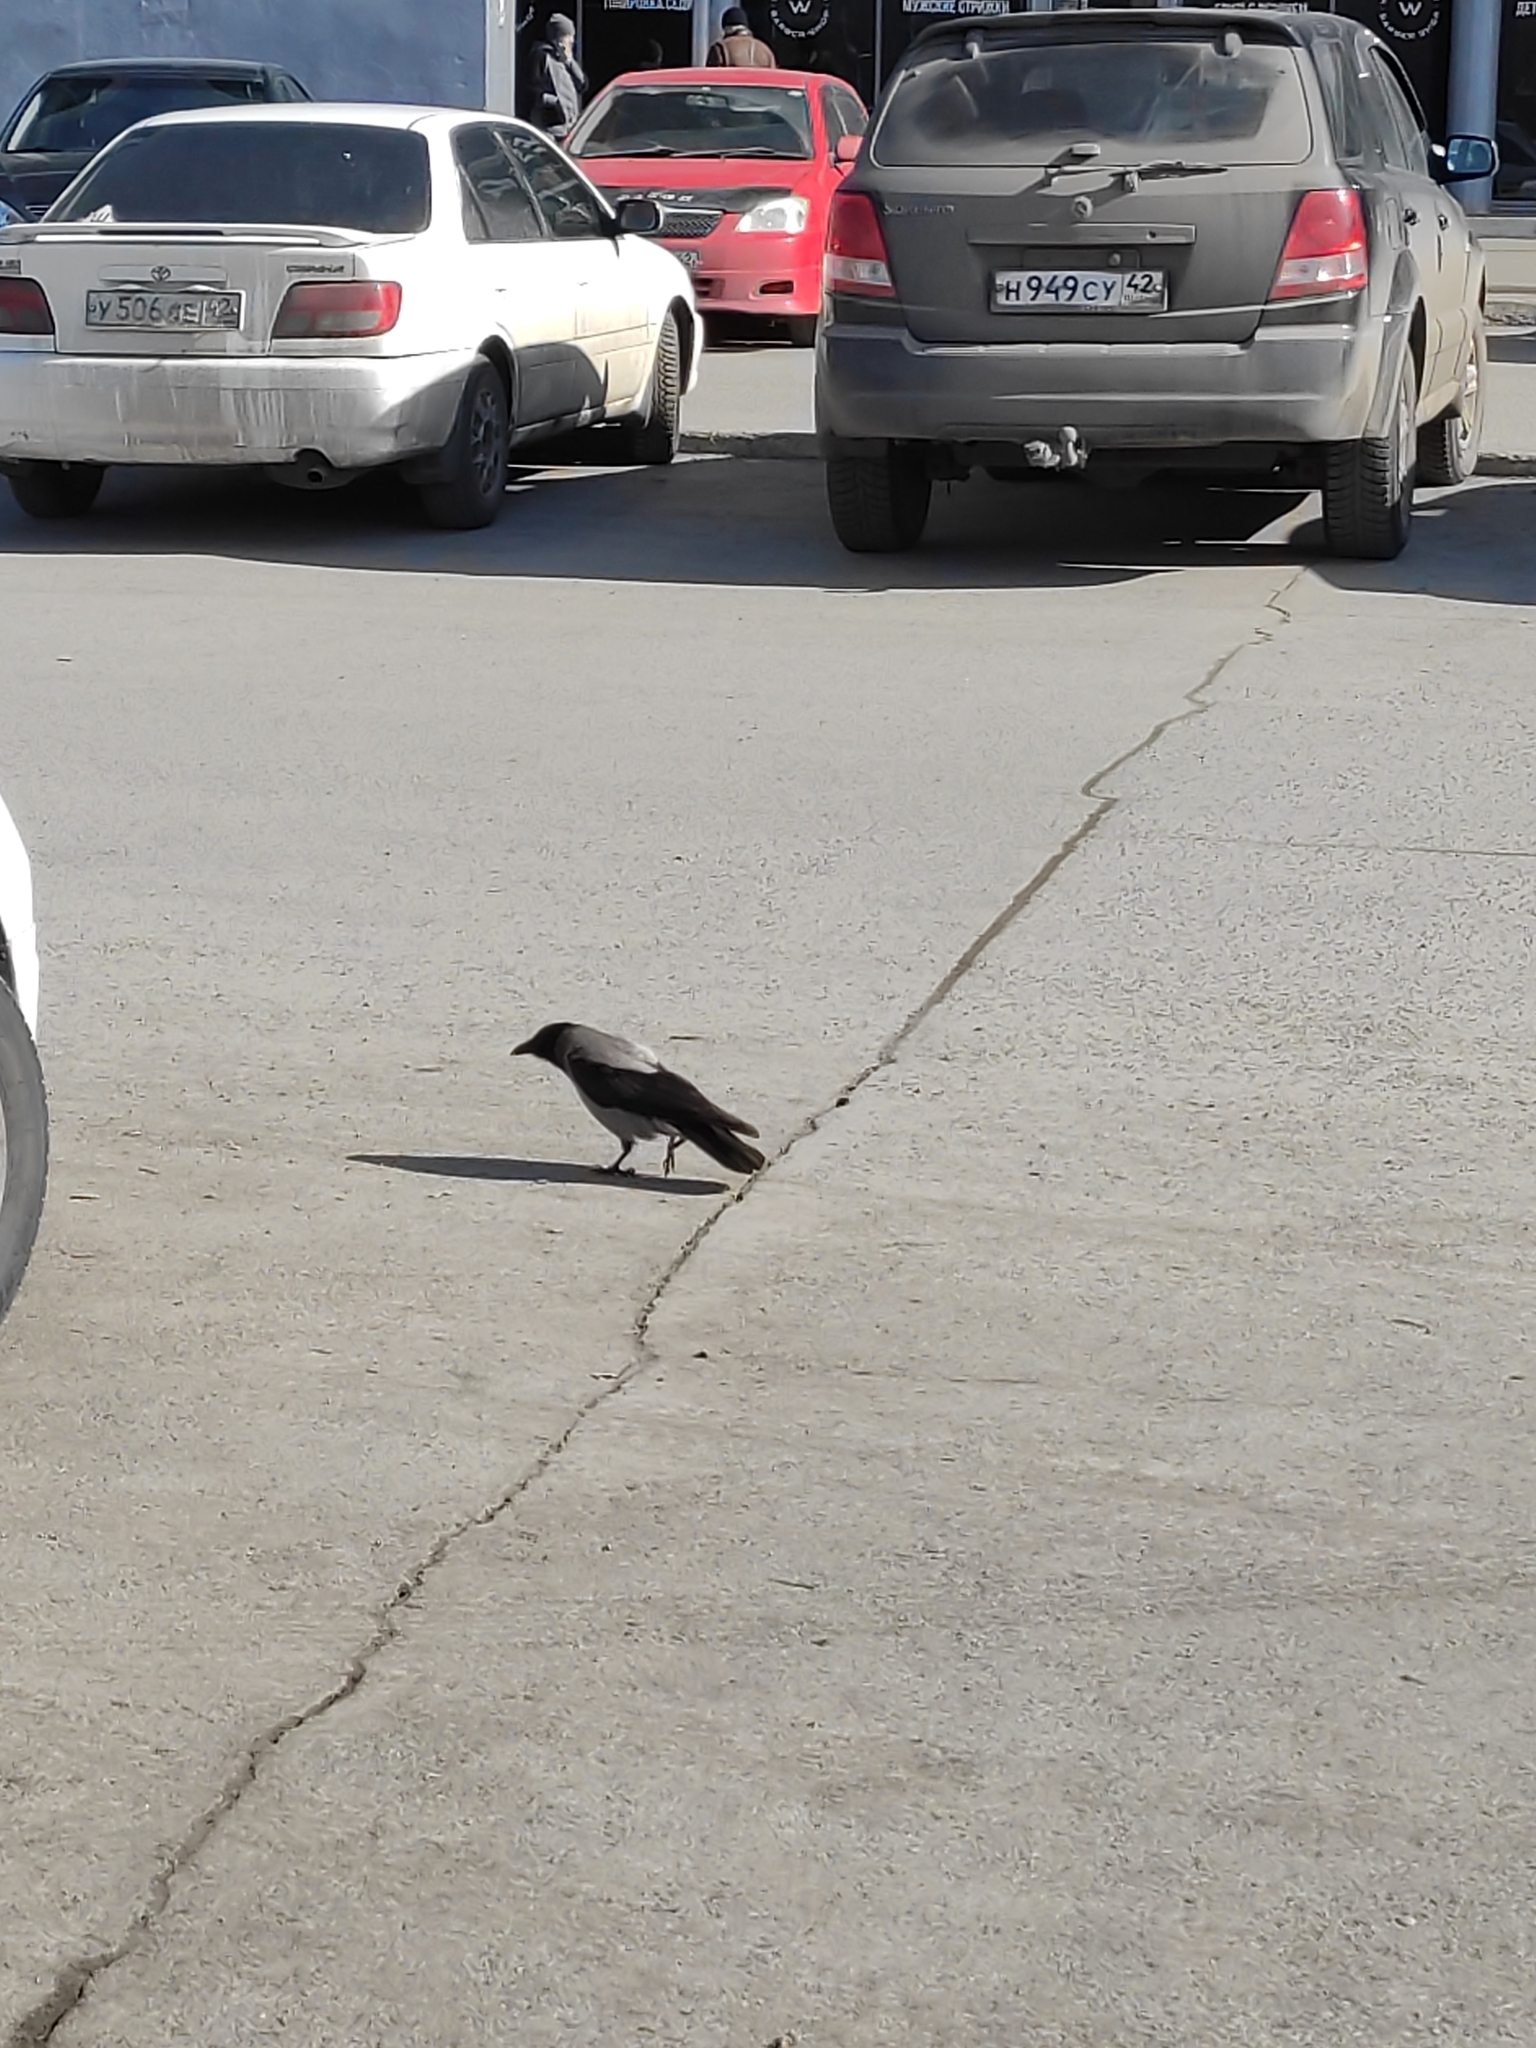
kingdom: Animalia
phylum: Chordata
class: Aves
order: Passeriformes
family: Corvidae
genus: Corvus
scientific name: Corvus cornix
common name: Hooded crow
